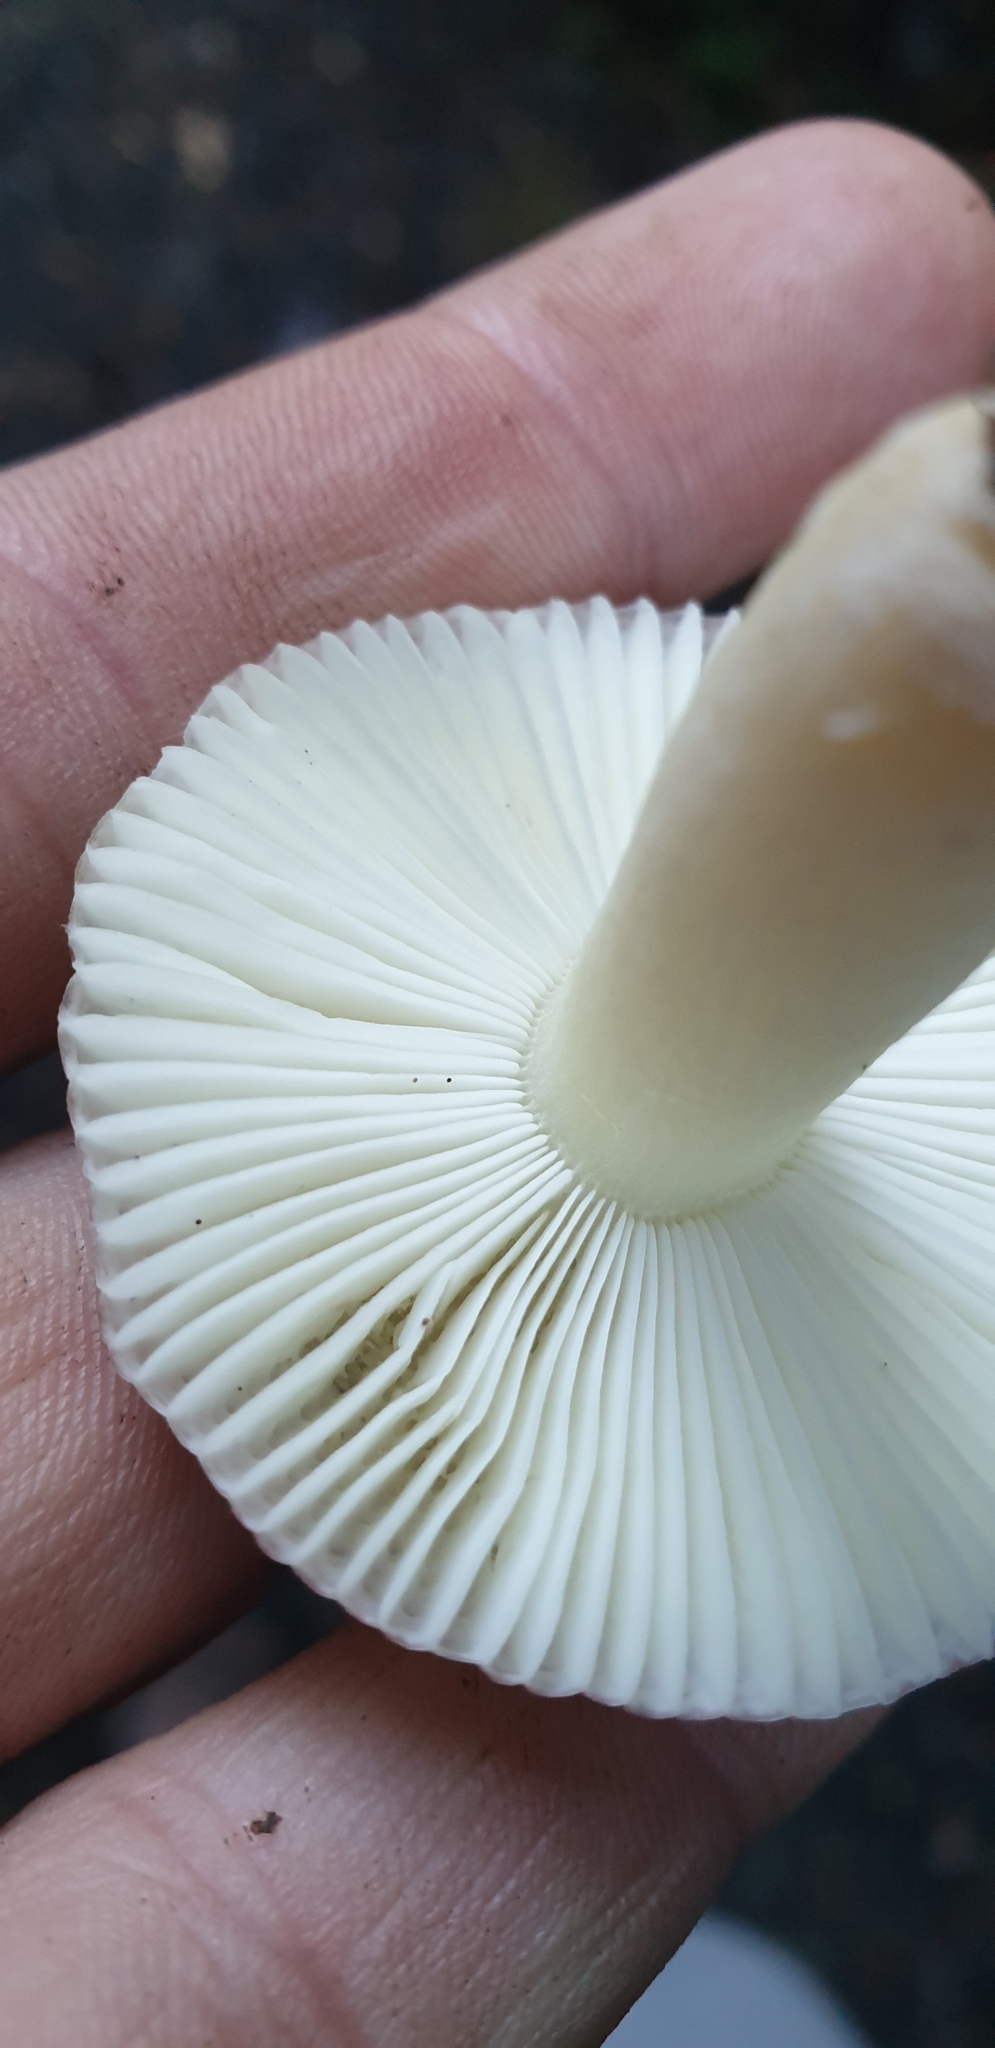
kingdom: Fungi
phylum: Basidiomycota
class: Agaricomycetes
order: Russulales
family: Russulaceae
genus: Russula
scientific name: Russula roseopileata
